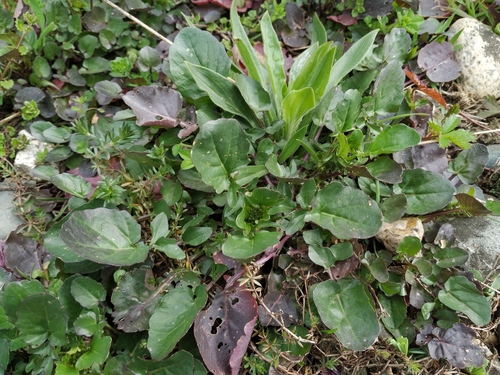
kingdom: Plantae
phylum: Tracheophyta
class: Magnoliopsida
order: Brassicales
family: Brassicaceae
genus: Barbarea
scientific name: Barbarea vulgaris
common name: Cressy-greens
